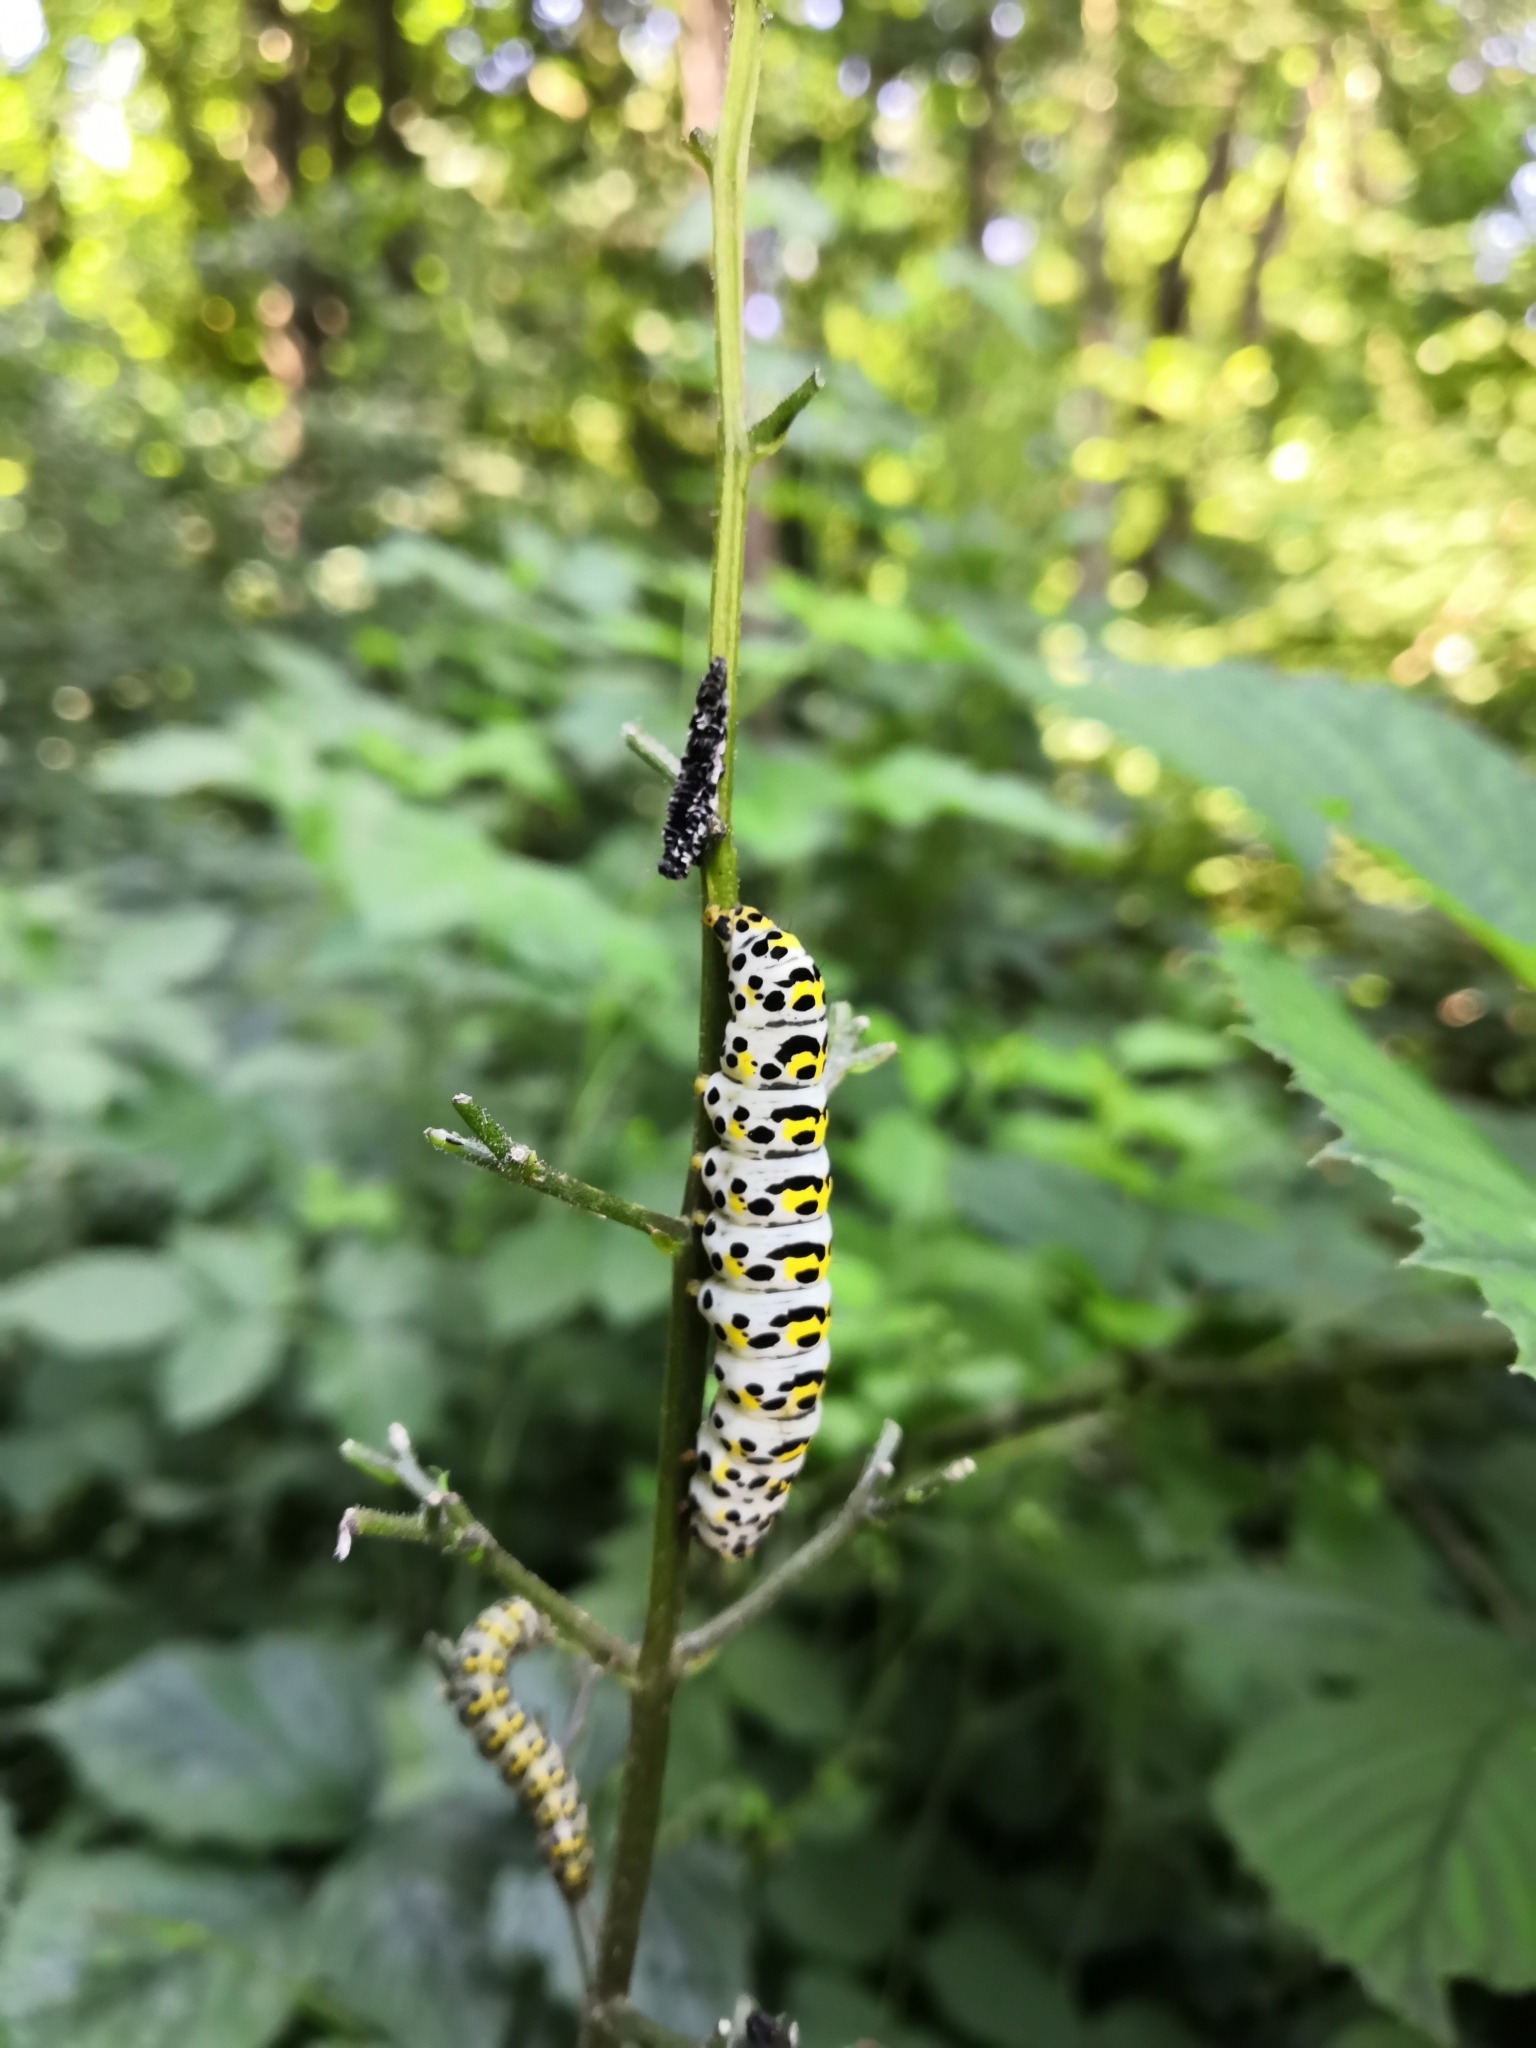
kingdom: Animalia
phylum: Arthropoda
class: Insecta
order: Lepidoptera
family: Noctuidae
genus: Cucullia
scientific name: Cucullia verbasci
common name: Mullein
